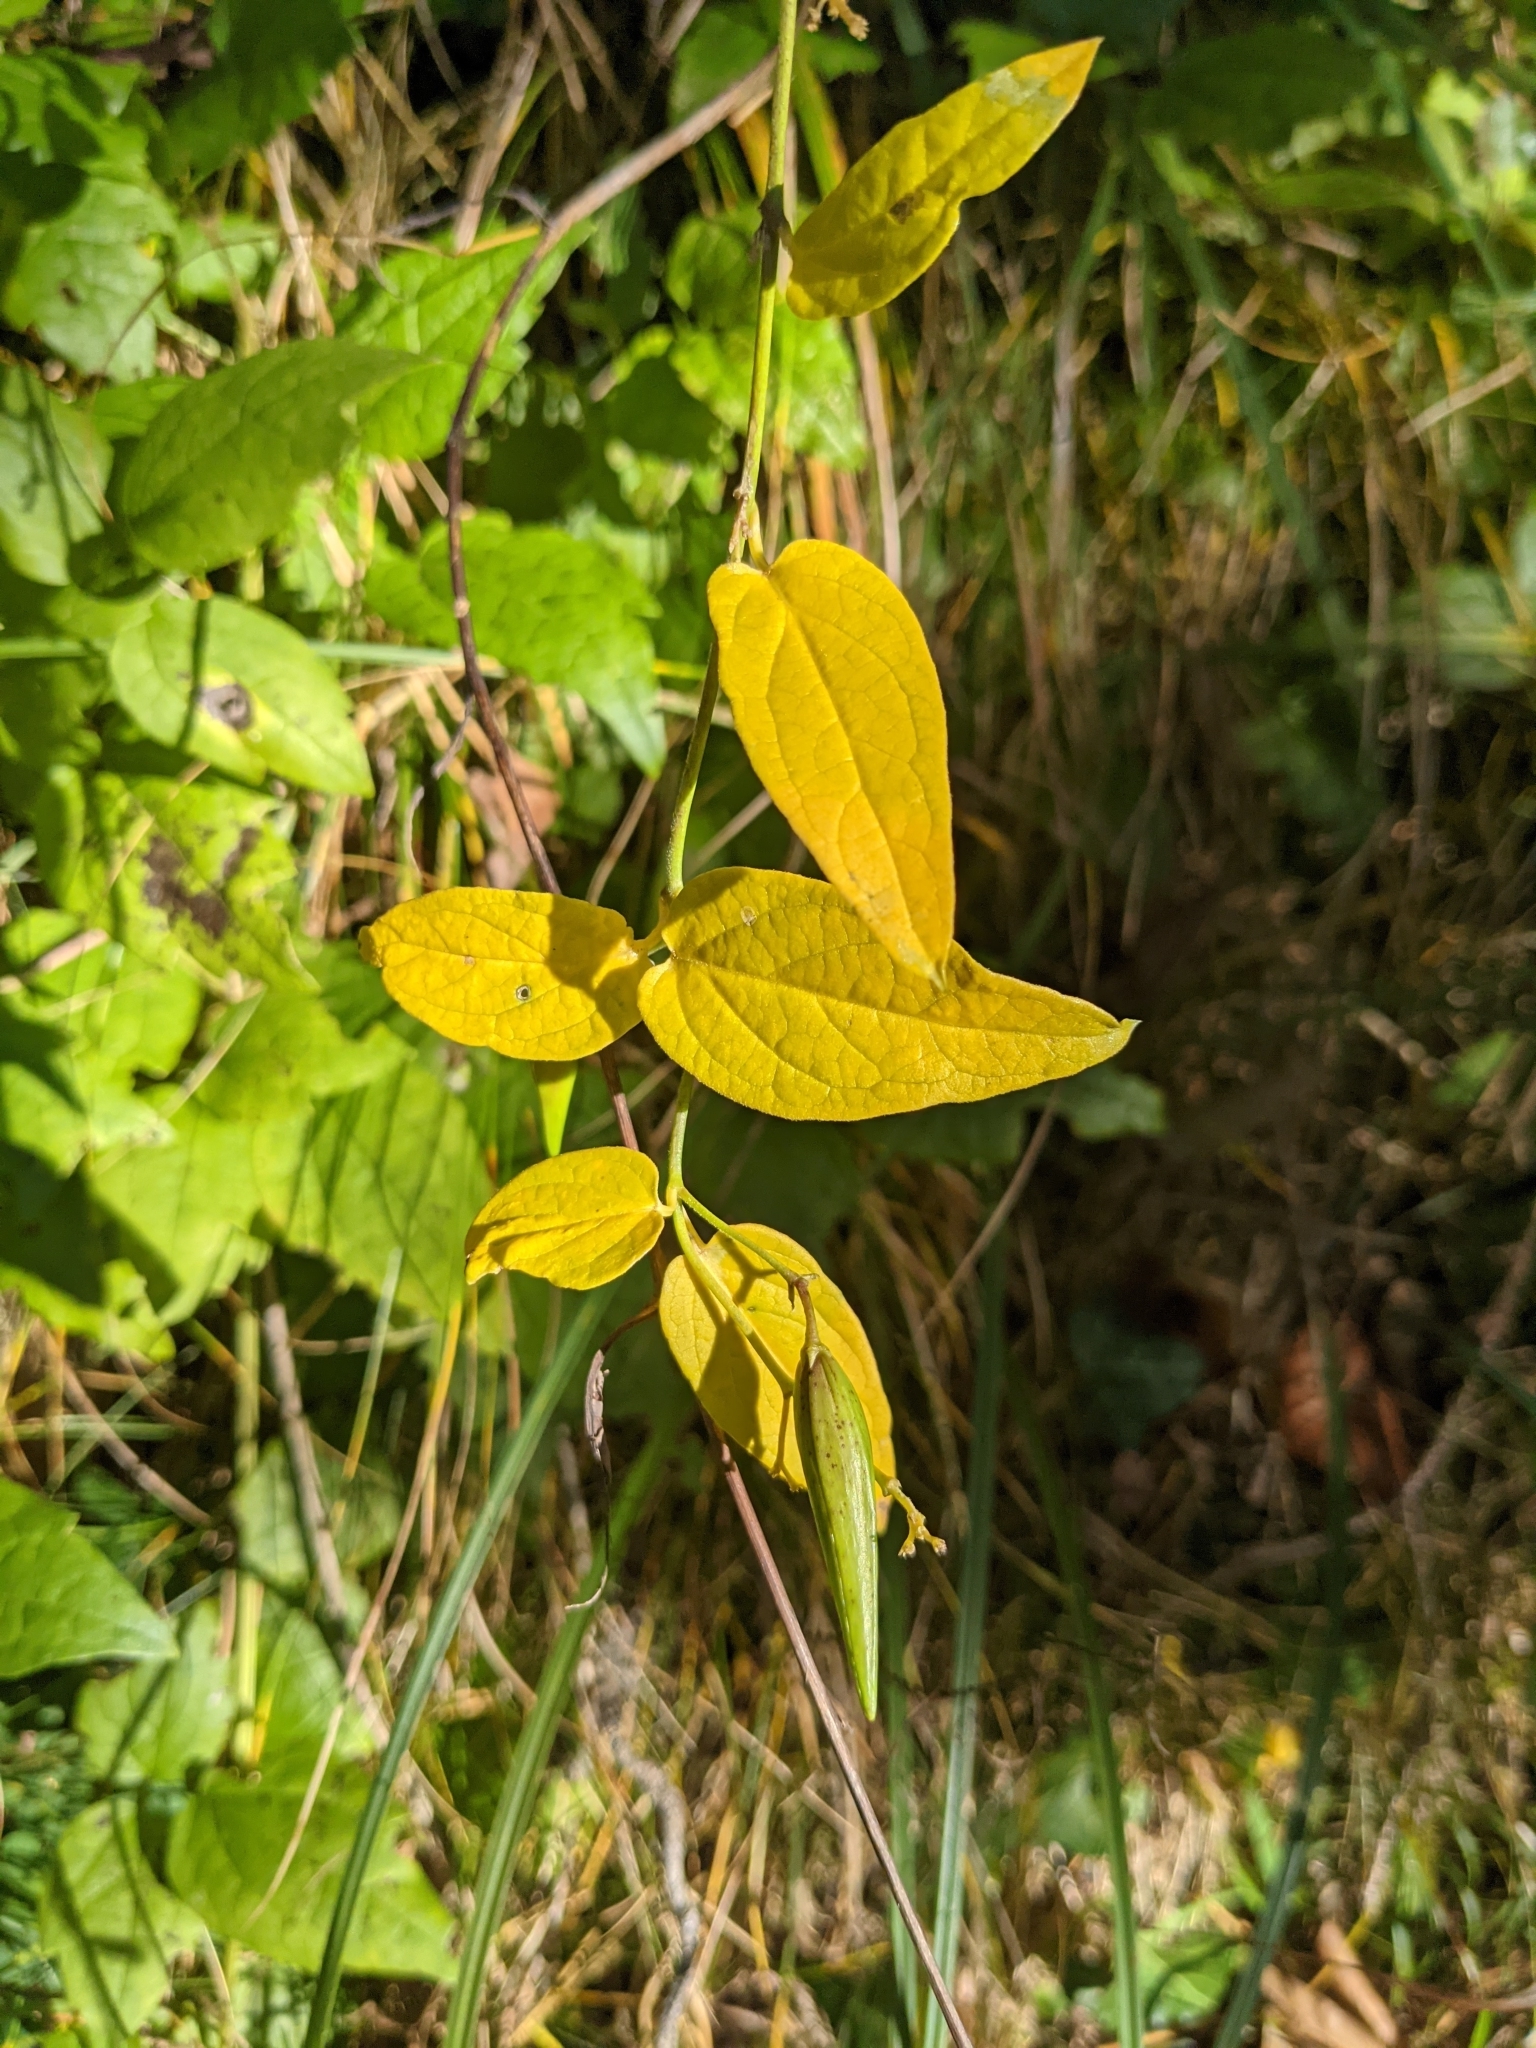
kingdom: Plantae
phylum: Tracheophyta
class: Magnoliopsida
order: Gentianales
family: Apocynaceae
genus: Vincetoxicum
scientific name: Vincetoxicum hirundinaria
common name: White swallowwort
